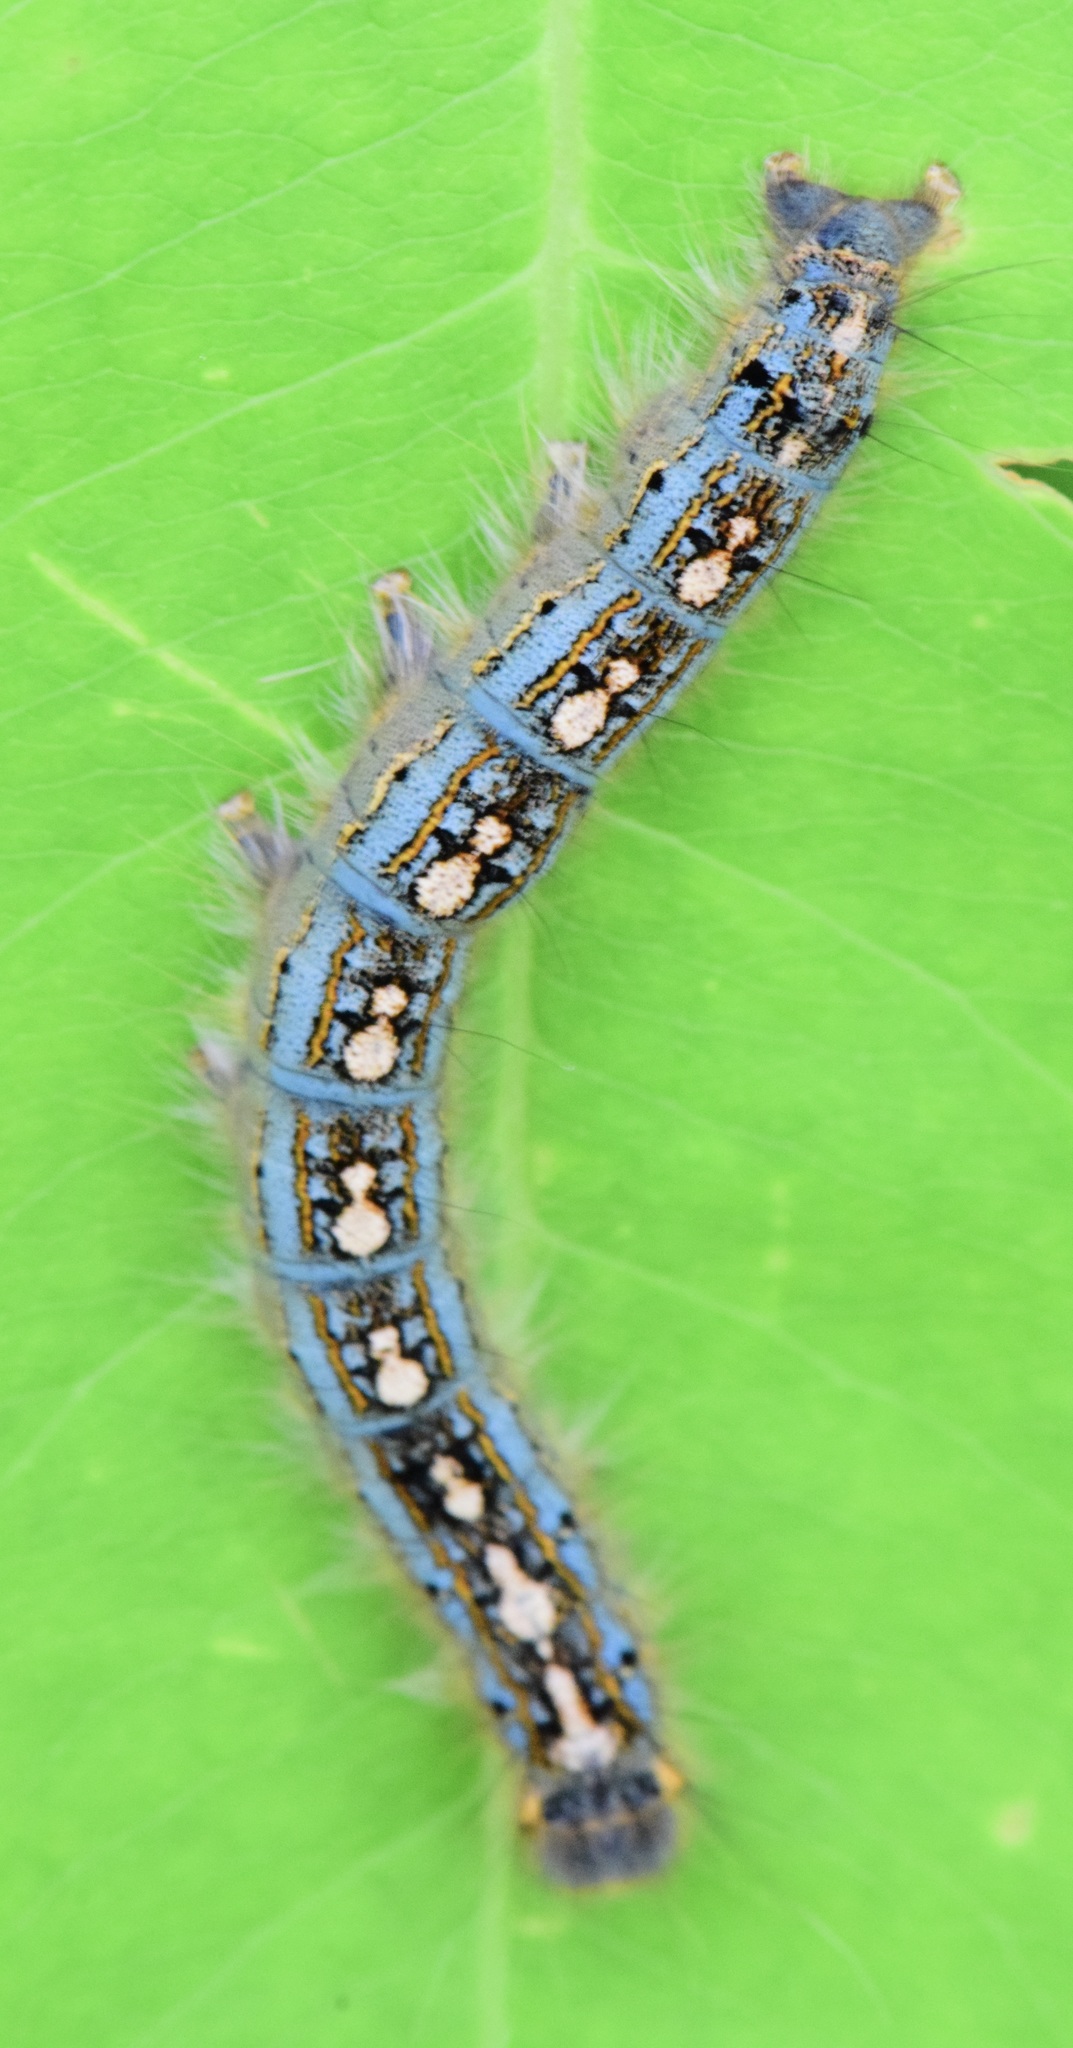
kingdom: Animalia
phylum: Arthropoda
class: Insecta
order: Lepidoptera
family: Lasiocampidae
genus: Malacosoma
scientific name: Malacosoma disstria
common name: Forest tent caterpillar
